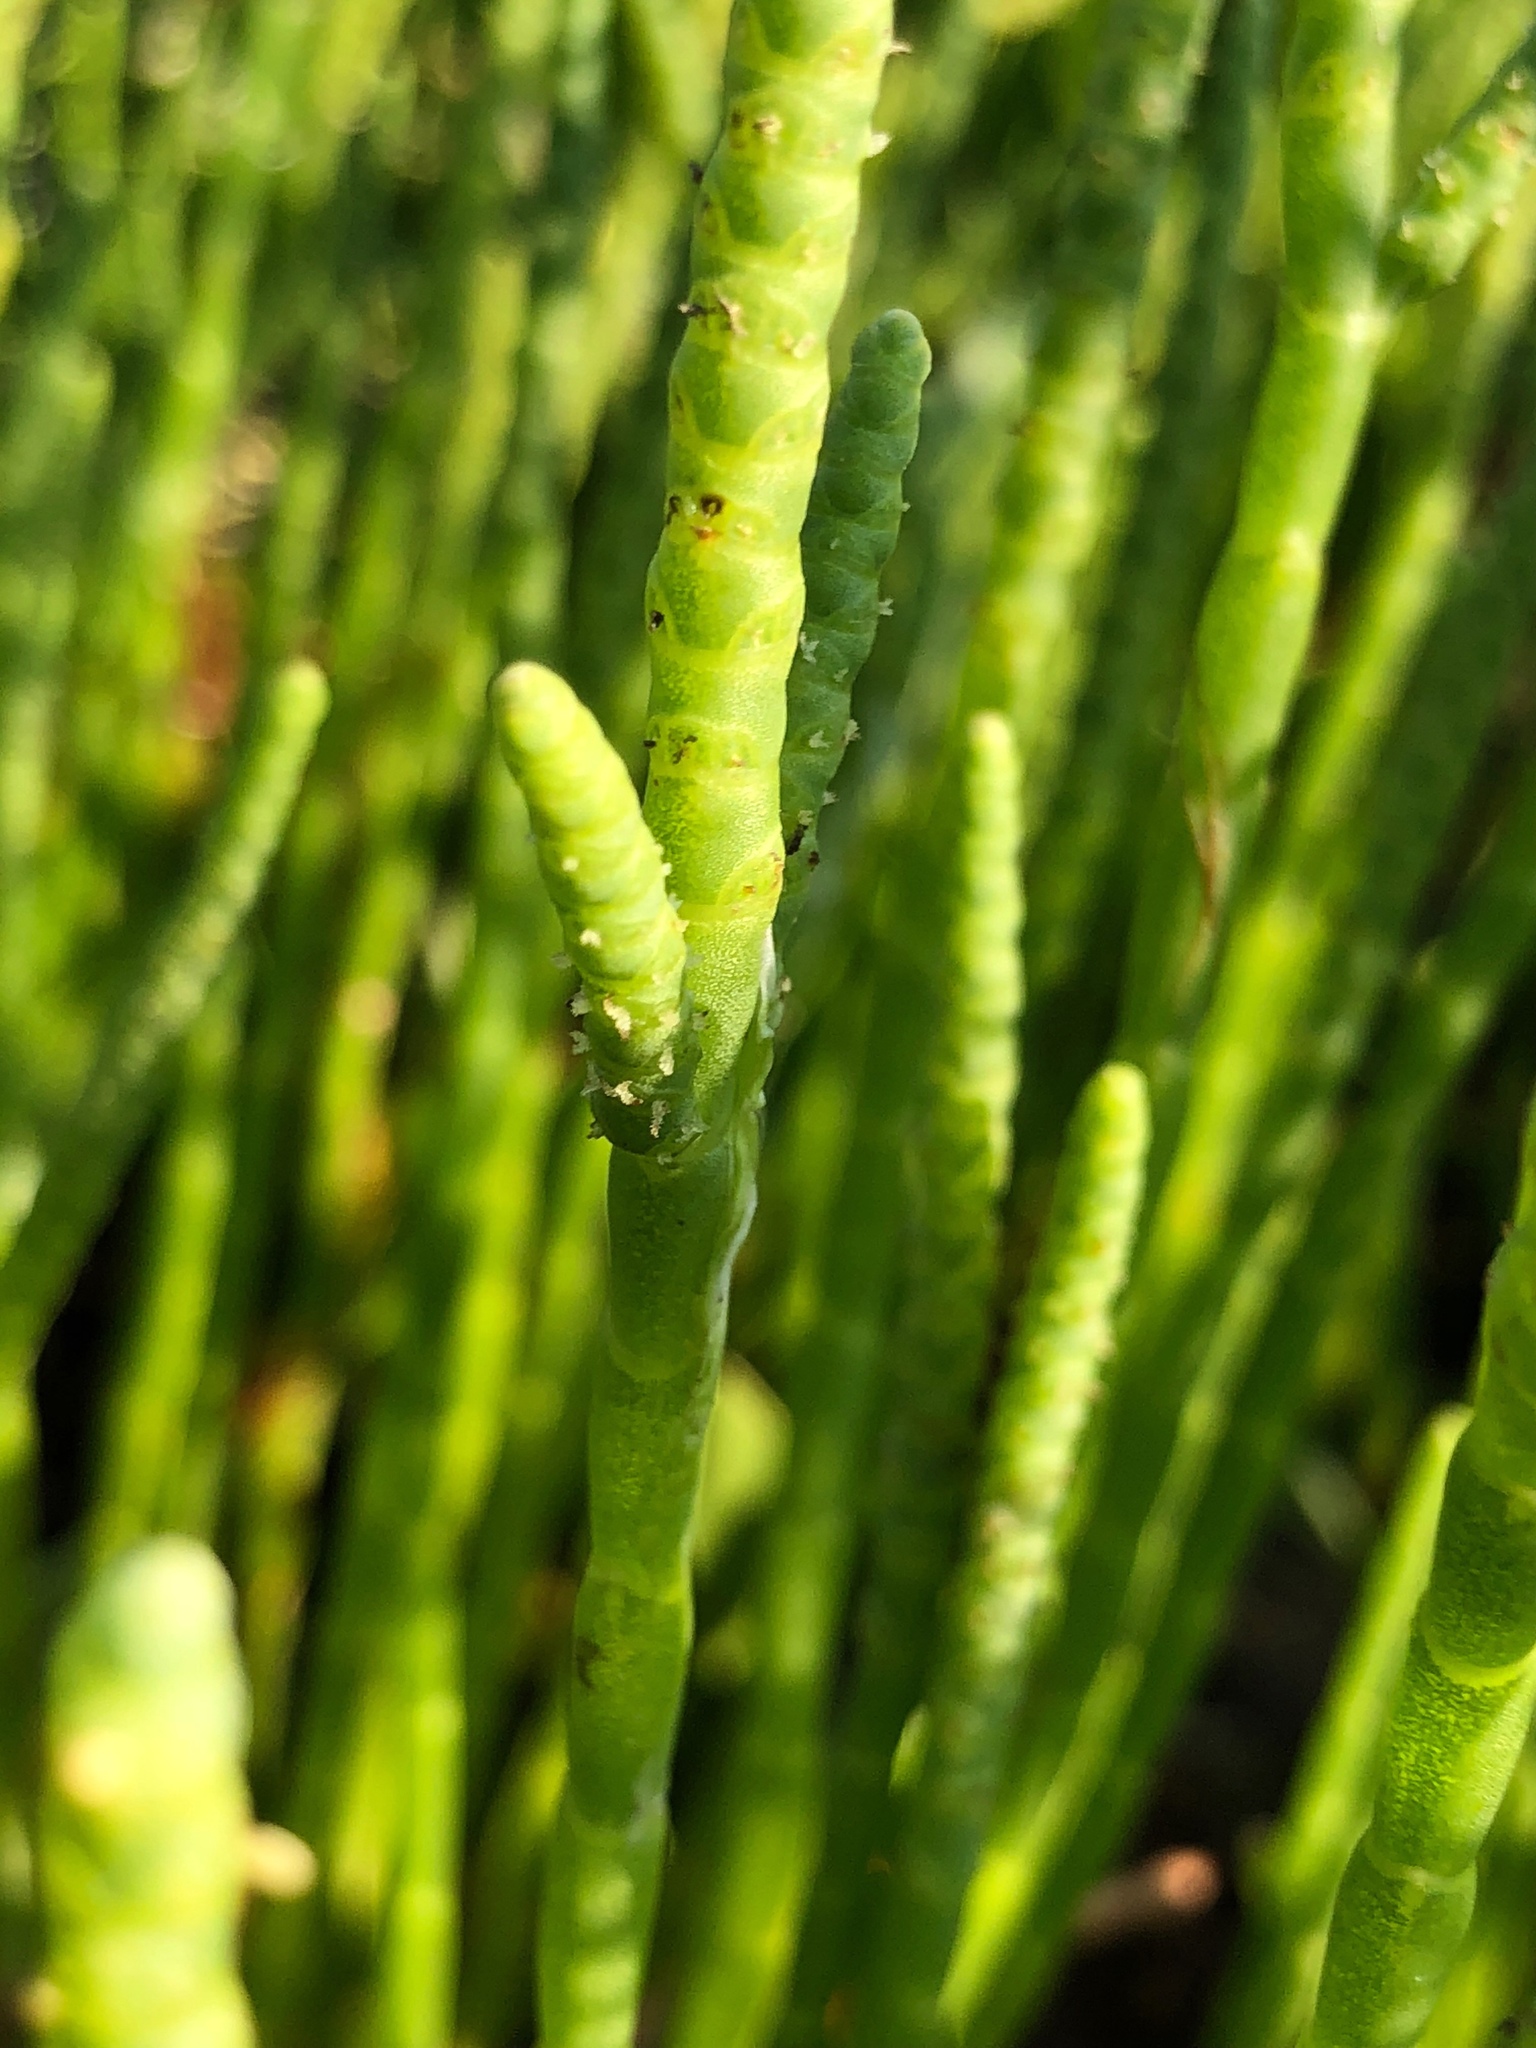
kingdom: Plantae
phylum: Tracheophyta
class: Magnoliopsida
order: Caryophyllales
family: Amaranthaceae
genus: Salicornia
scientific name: Salicornia perennis
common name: Chicken claws
